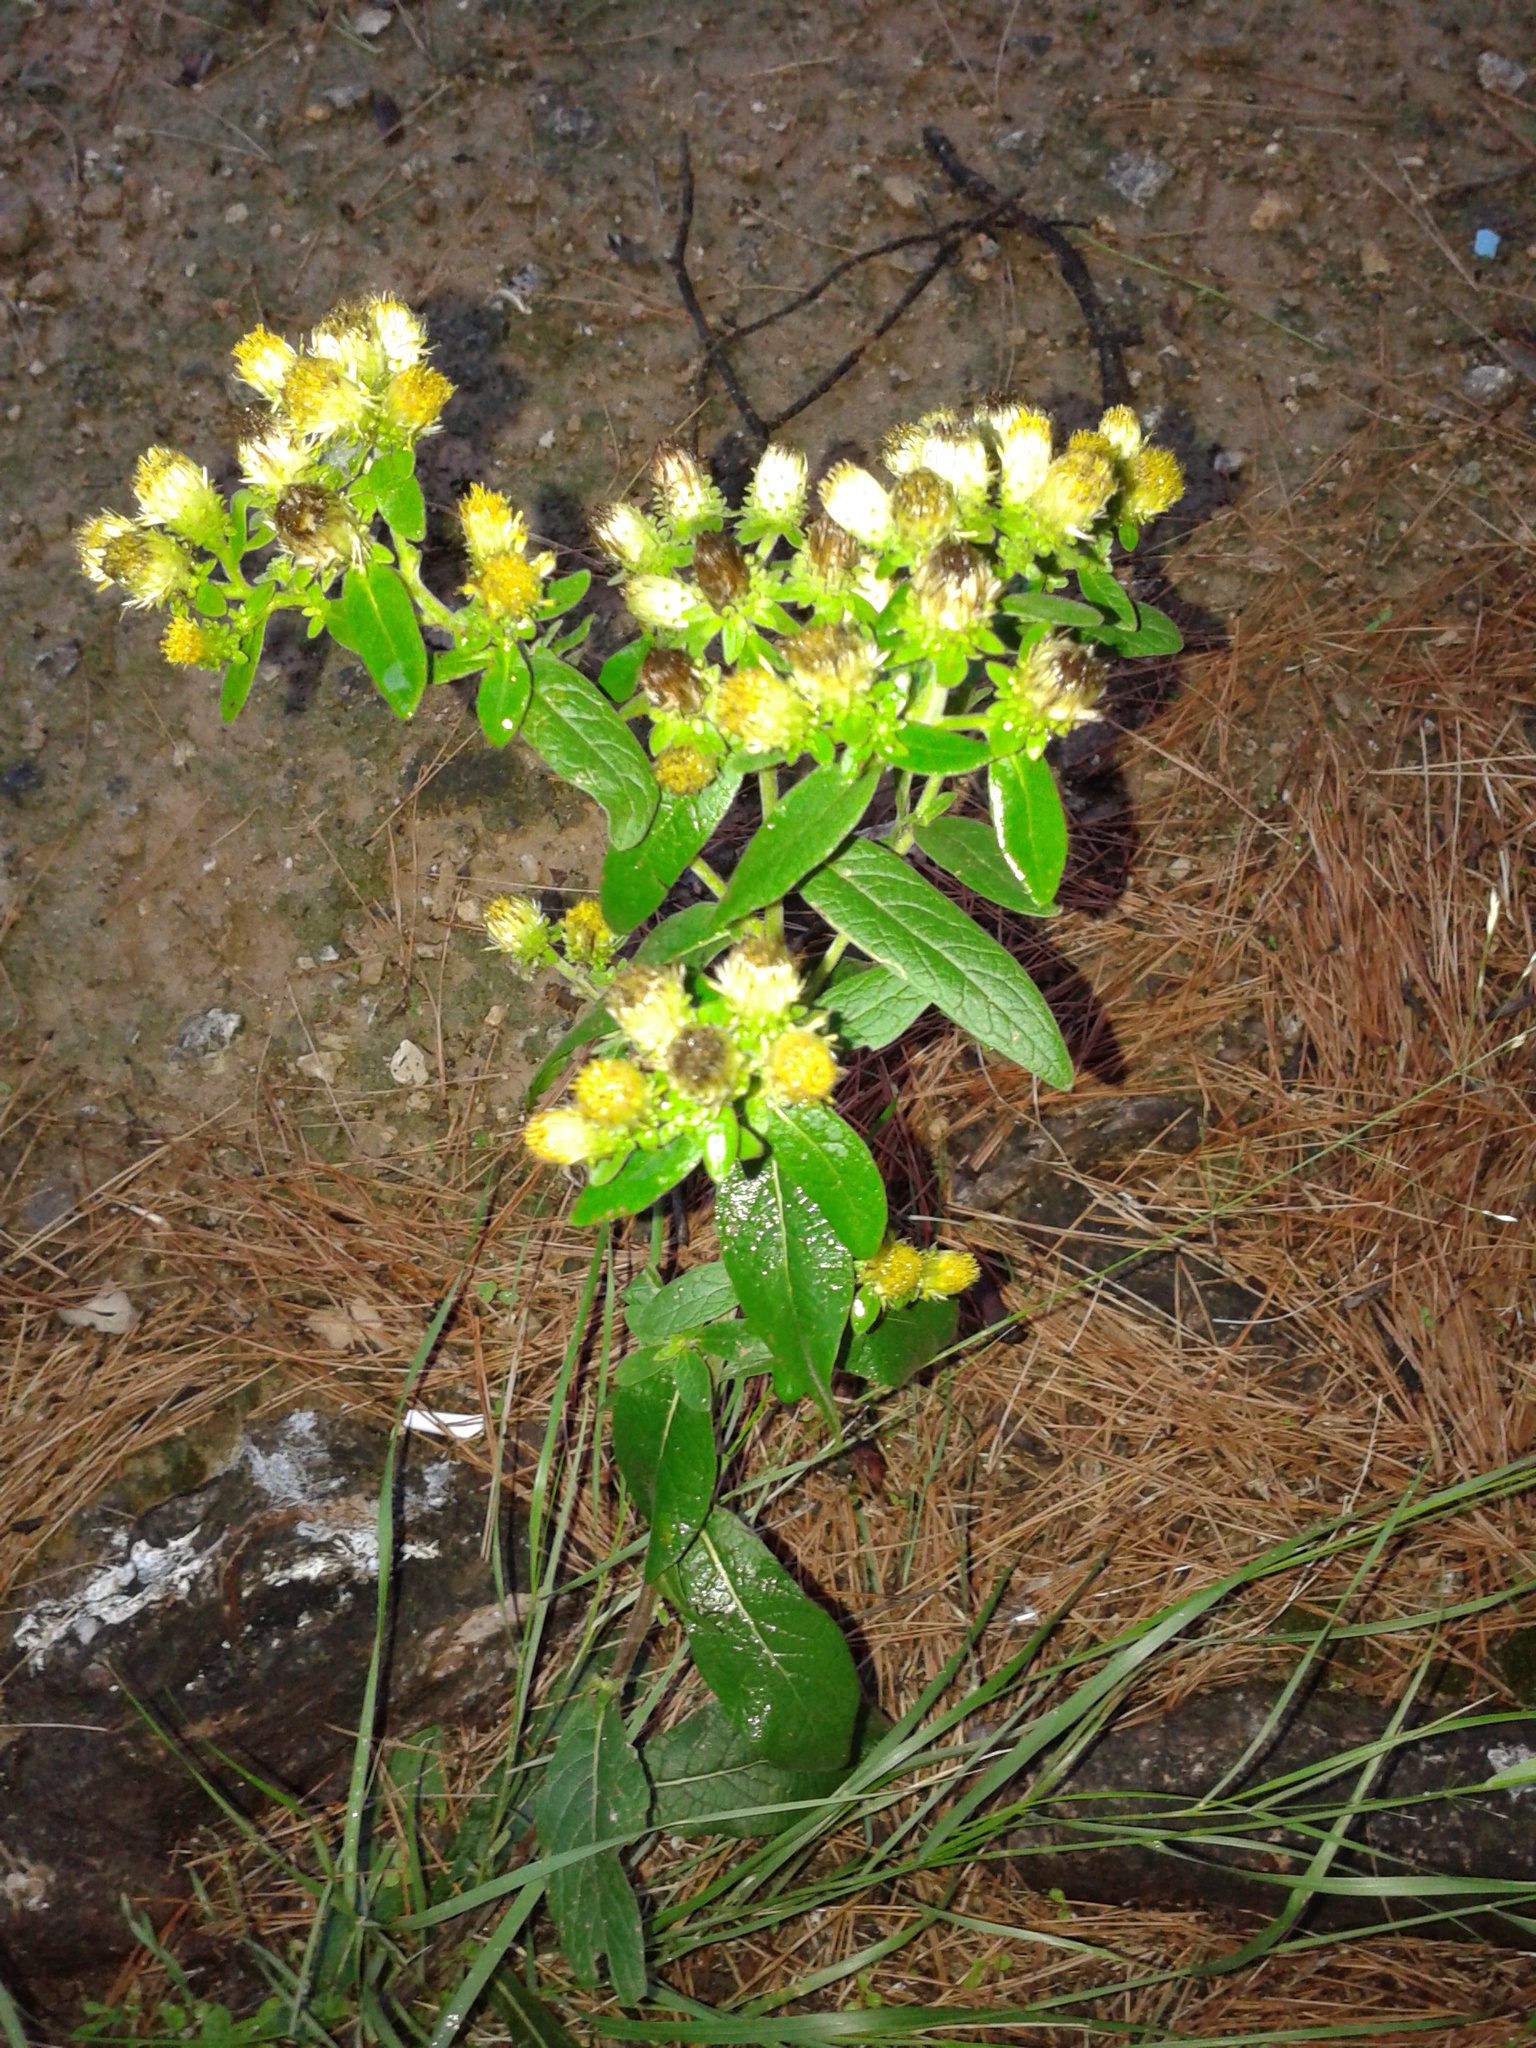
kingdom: Plantae
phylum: Tracheophyta
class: Magnoliopsida
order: Asterales
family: Asteraceae
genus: Pentanema
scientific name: Pentanema squarrosum
